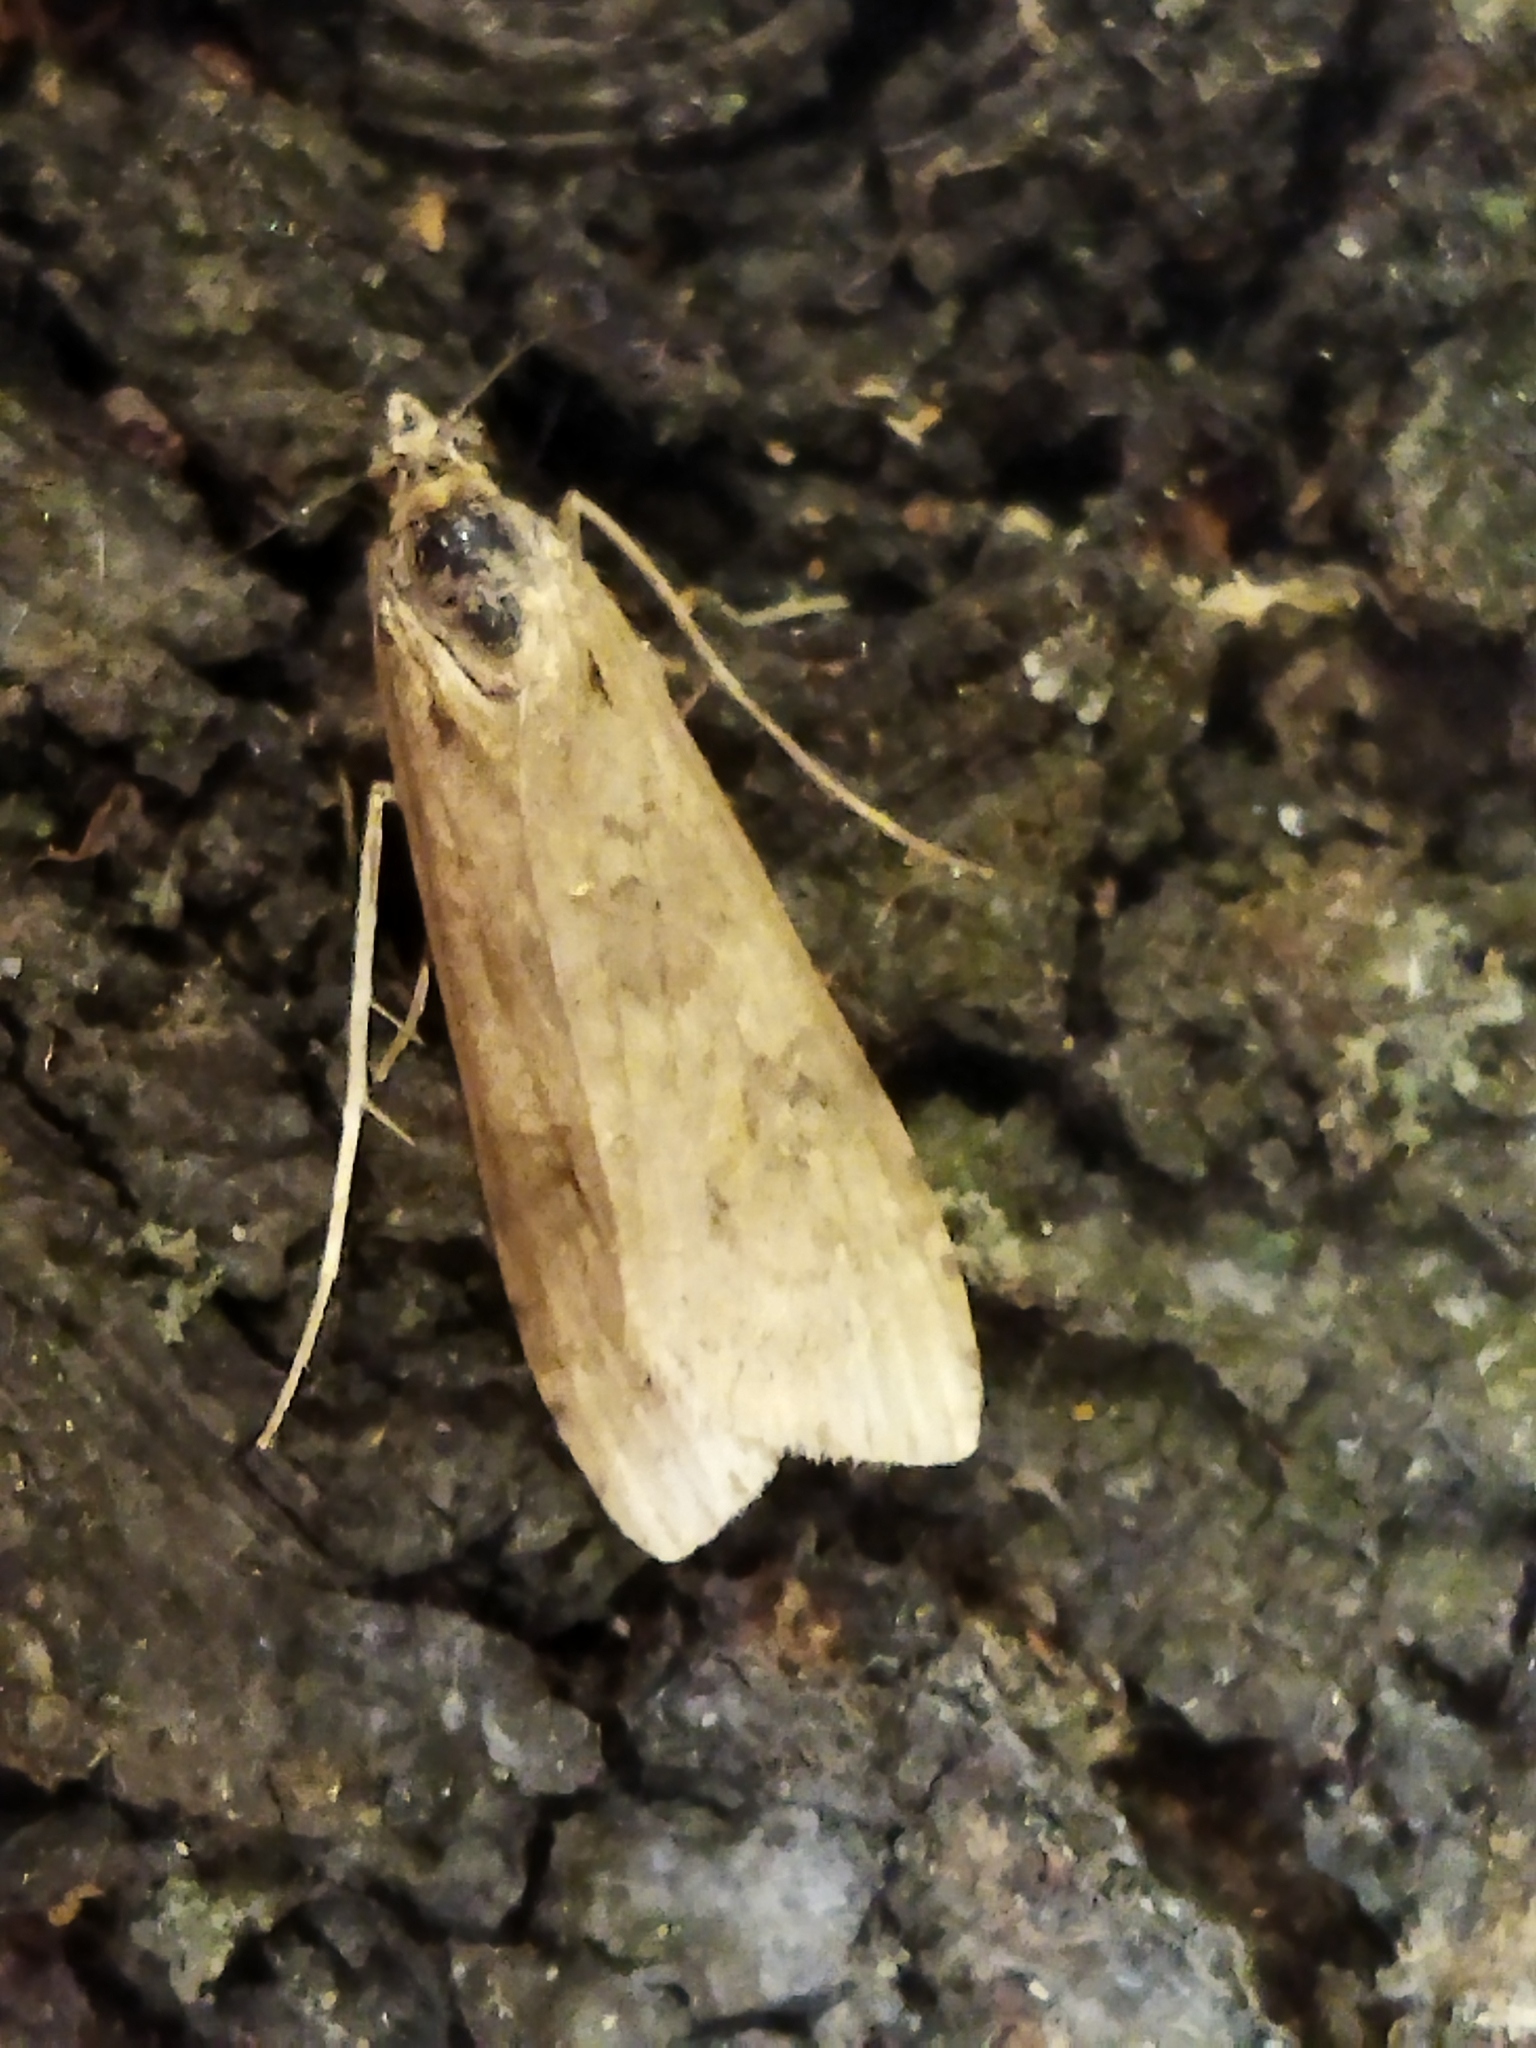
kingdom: Animalia
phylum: Arthropoda
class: Insecta
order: Lepidoptera
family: Crambidae
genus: Nomophila
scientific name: Nomophila noctuella
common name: Rush veneer
